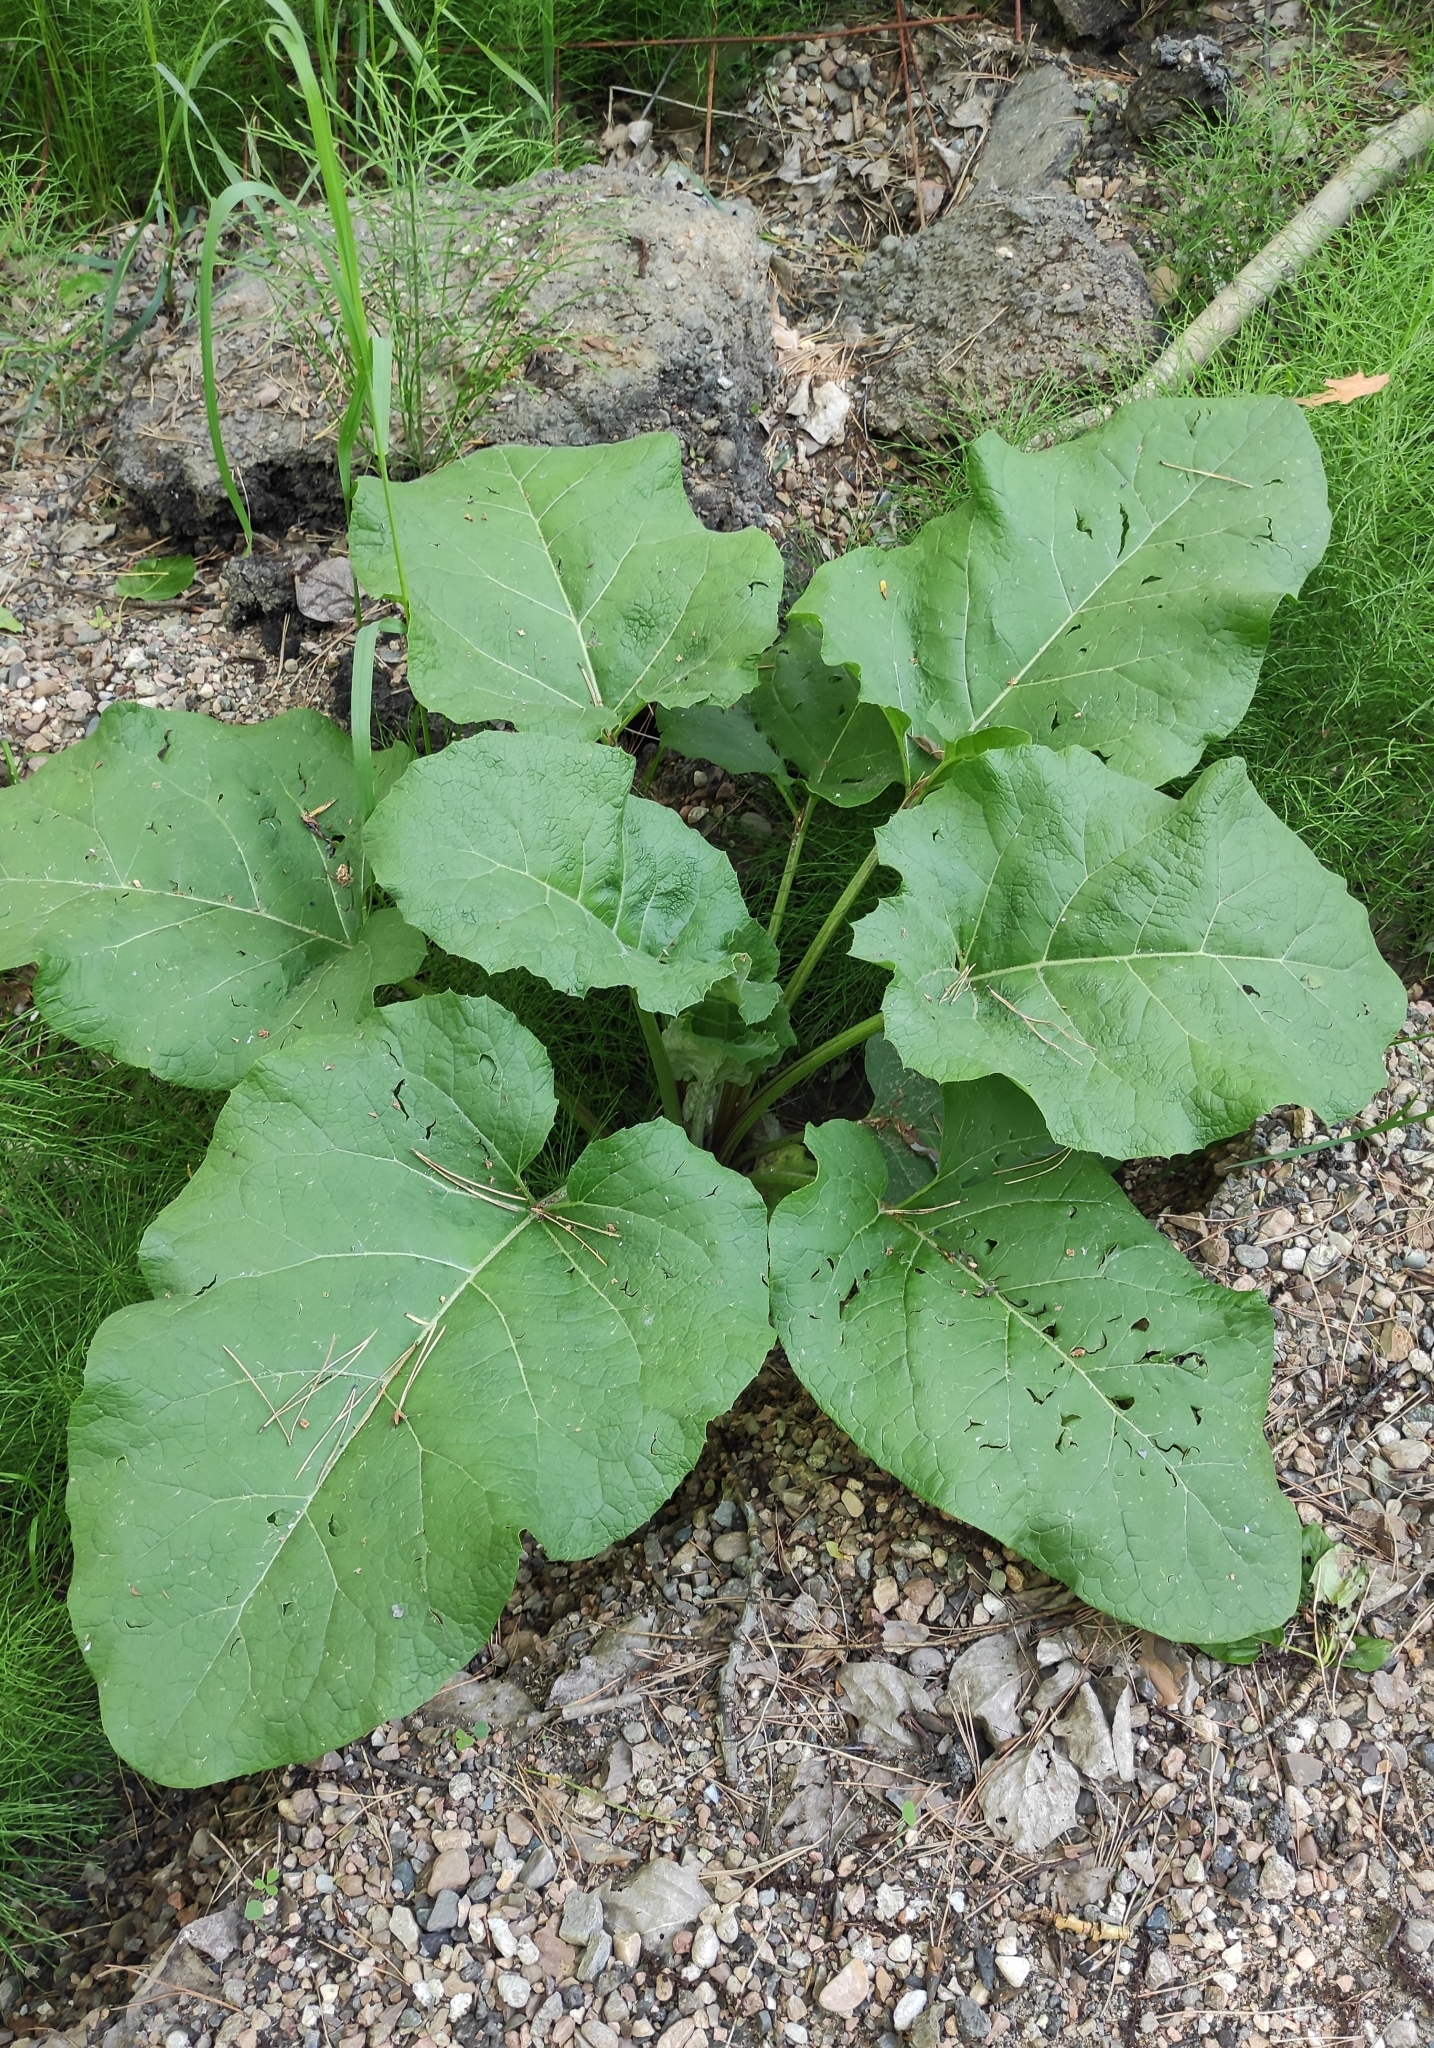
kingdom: Plantae
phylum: Tracheophyta
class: Magnoliopsida
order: Asterales
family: Asteraceae
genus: Arctium
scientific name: Arctium tomentosum
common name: Woolly burdock
